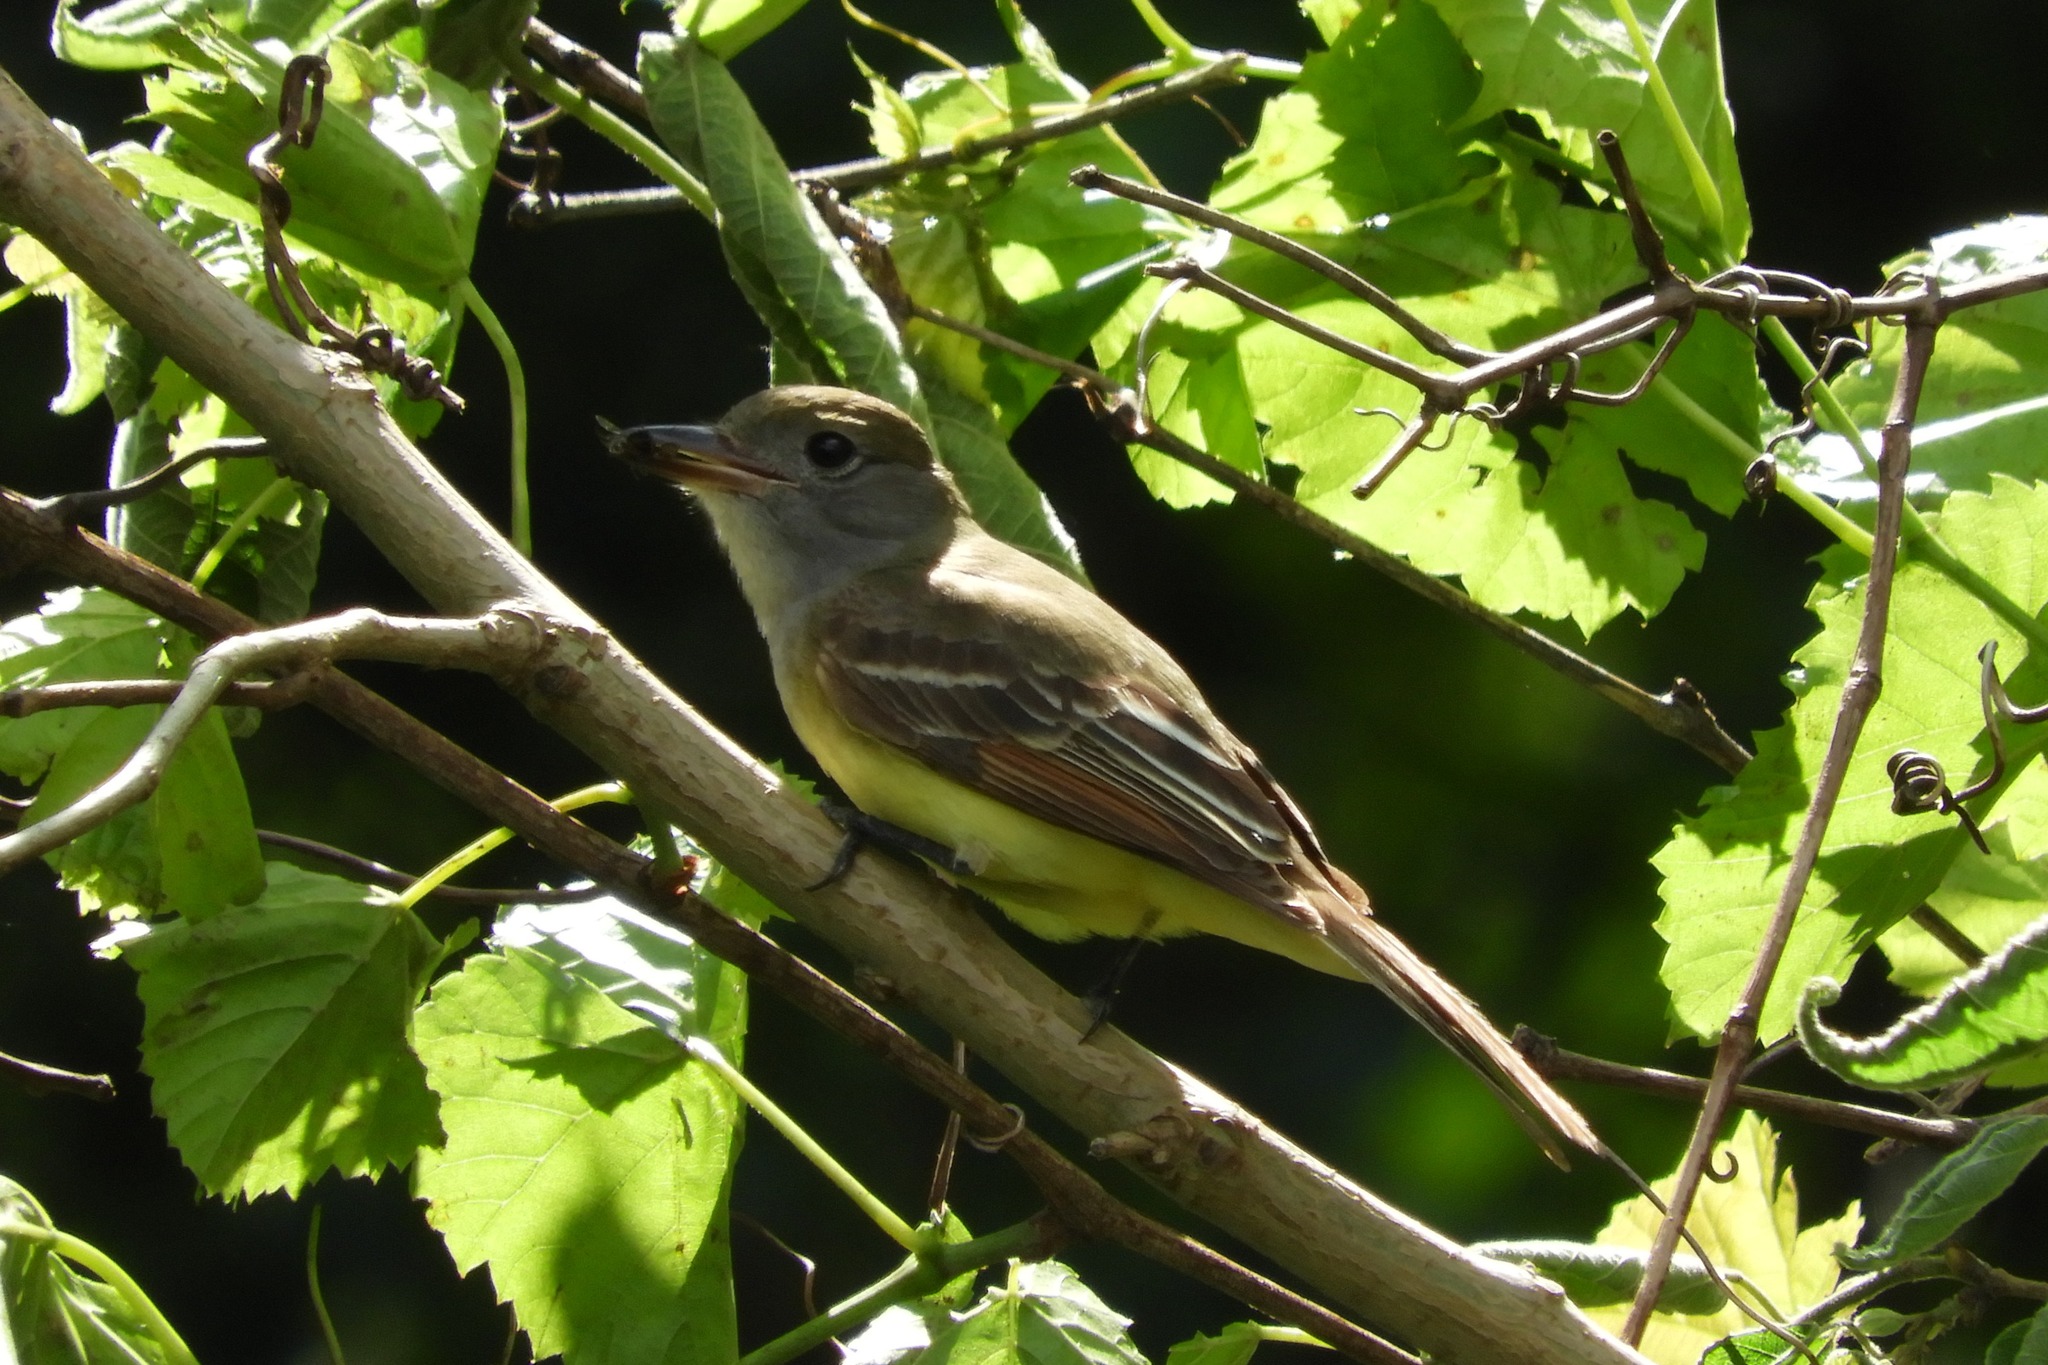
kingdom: Animalia
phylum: Chordata
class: Aves
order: Passeriformes
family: Tyrannidae
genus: Myiarchus
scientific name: Myiarchus crinitus
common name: Great crested flycatcher
